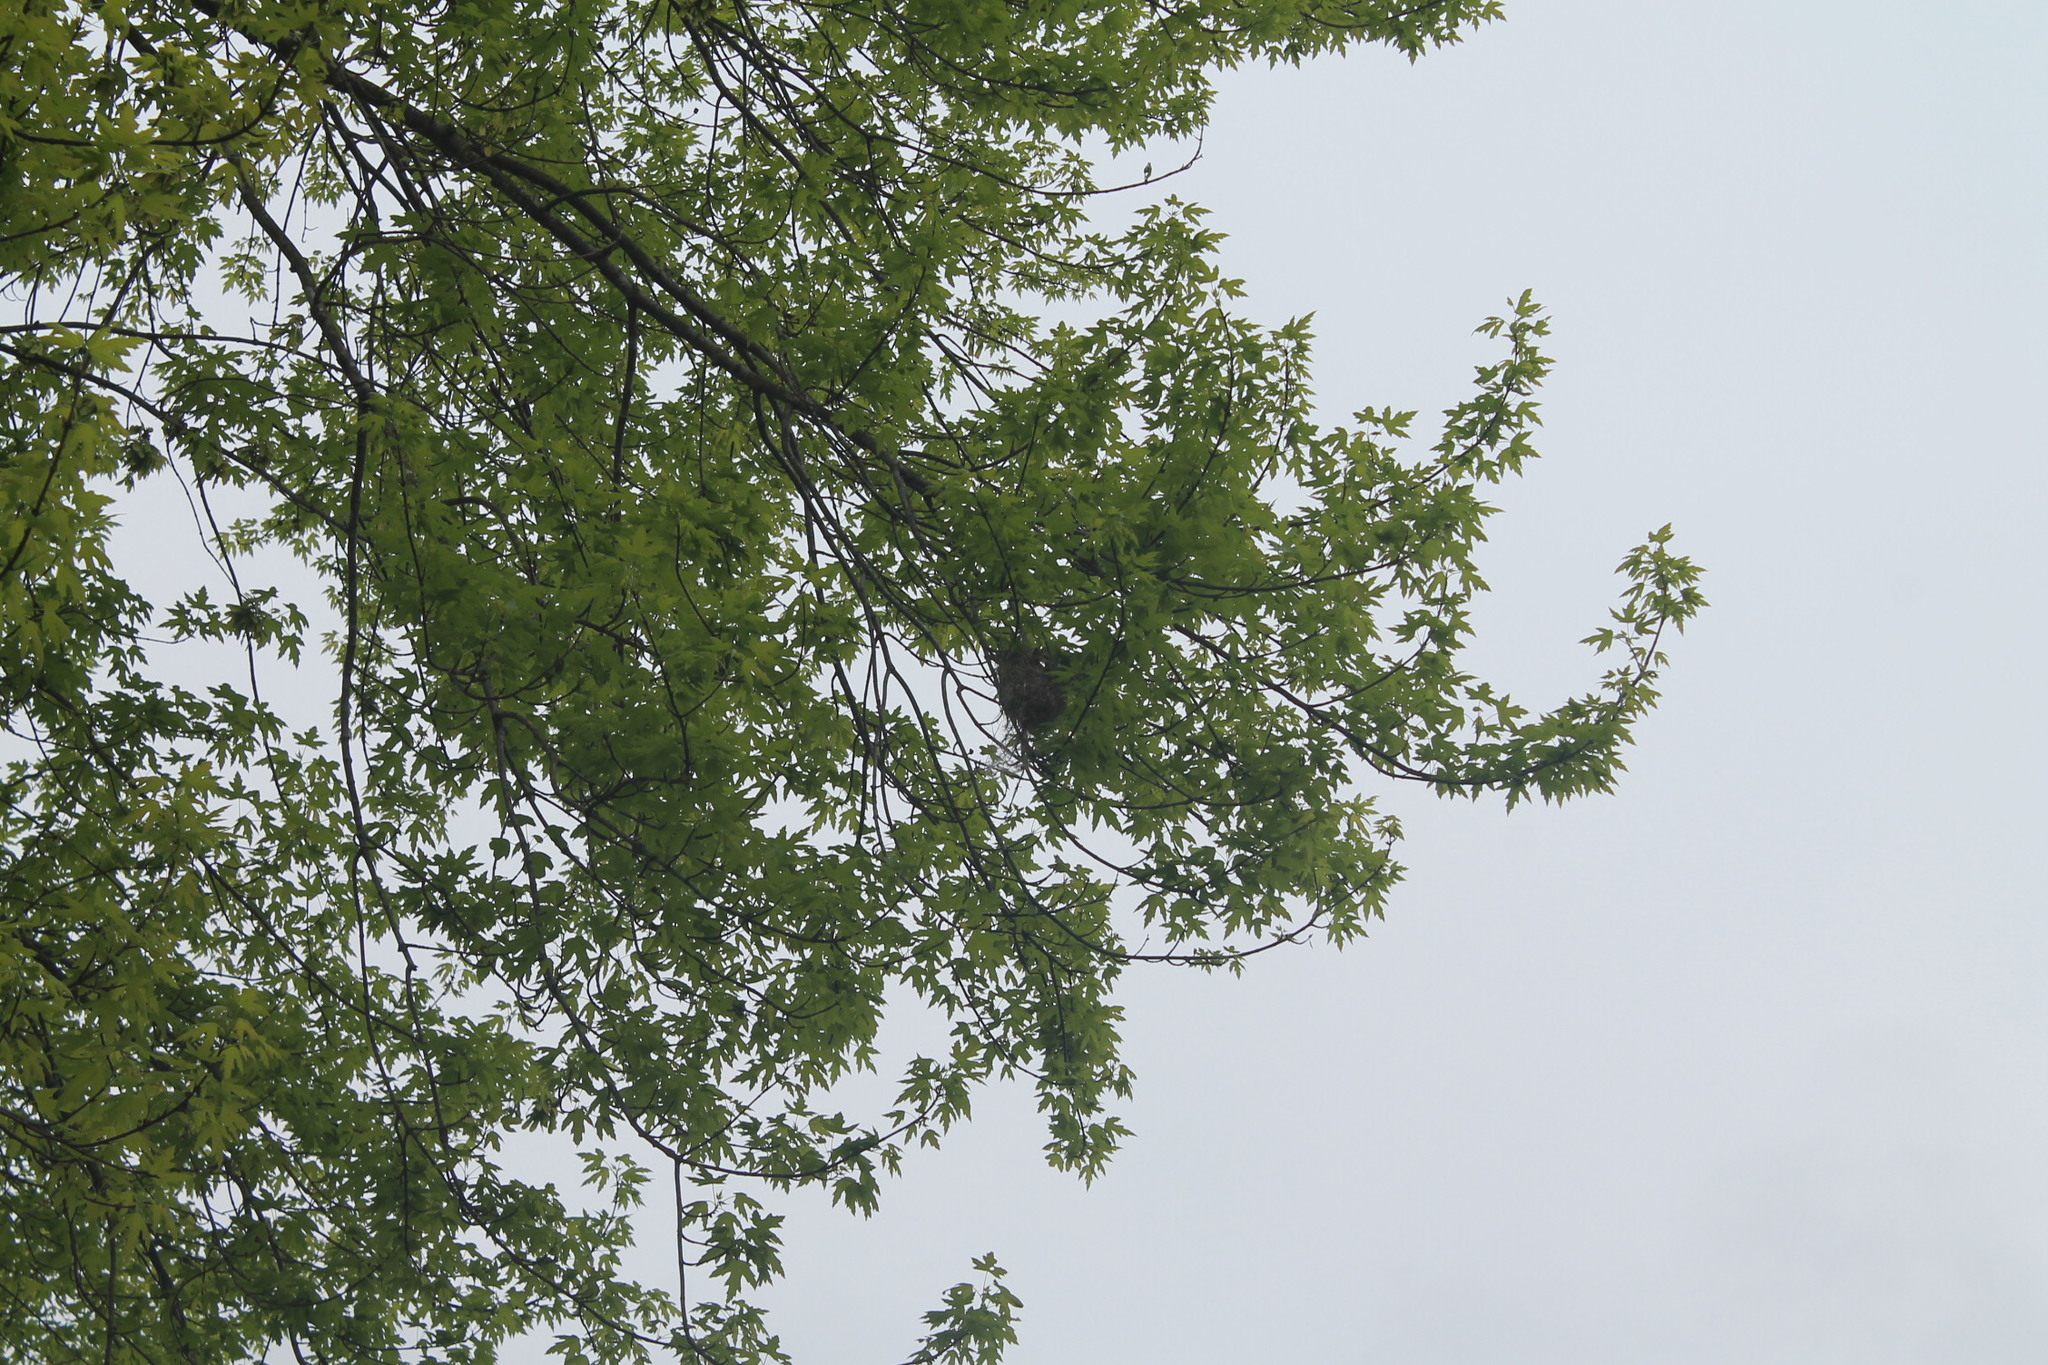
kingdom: Animalia
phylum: Chordata
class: Aves
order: Passeriformes
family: Icteridae
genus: Icterus
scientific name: Icterus galbula
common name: Baltimore oriole
